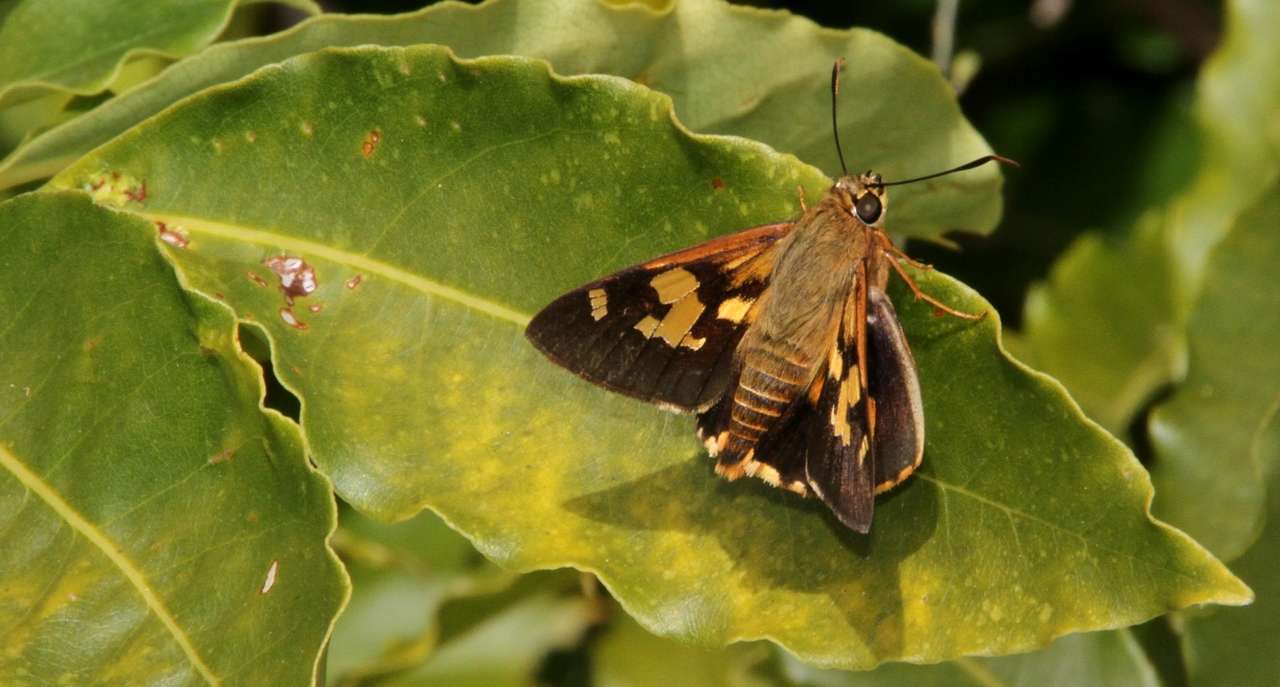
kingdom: Animalia
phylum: Arthropoda
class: Insecta
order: Lepidoptera
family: Hesperiidae
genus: Trapezites
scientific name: Trapezites symmomus
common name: Splendid ochre
